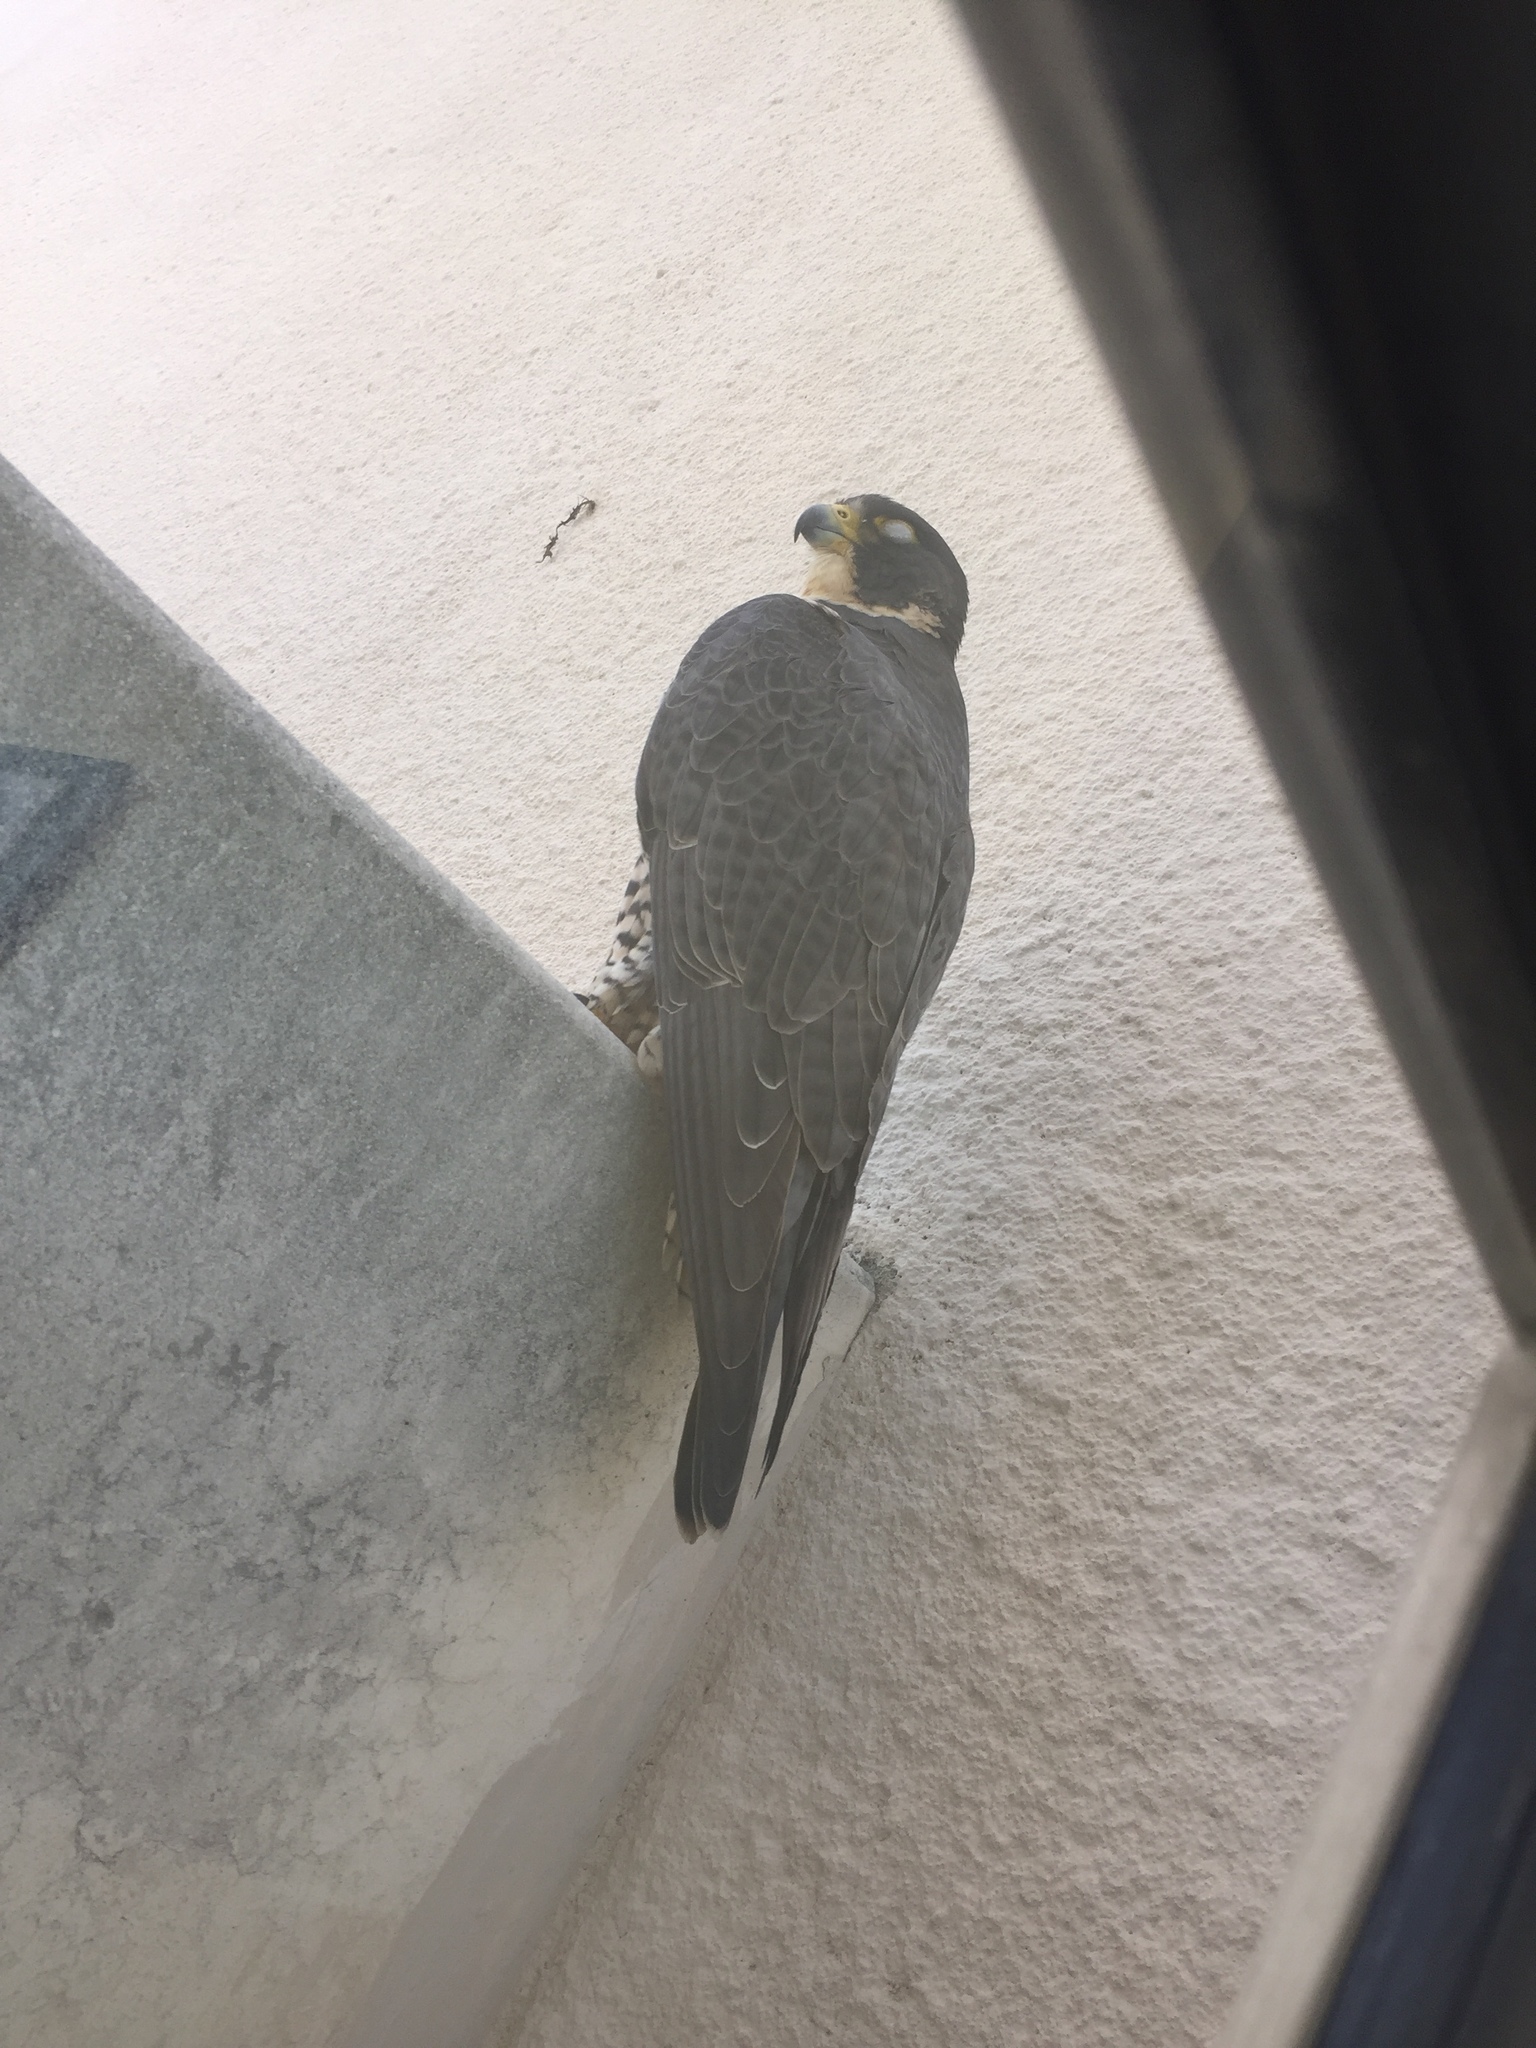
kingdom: Animalia
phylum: Chordata
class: Aves
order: Falconiformes
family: Falconidae
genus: Falco
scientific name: Falco peregrinus
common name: Peregrine falcon
